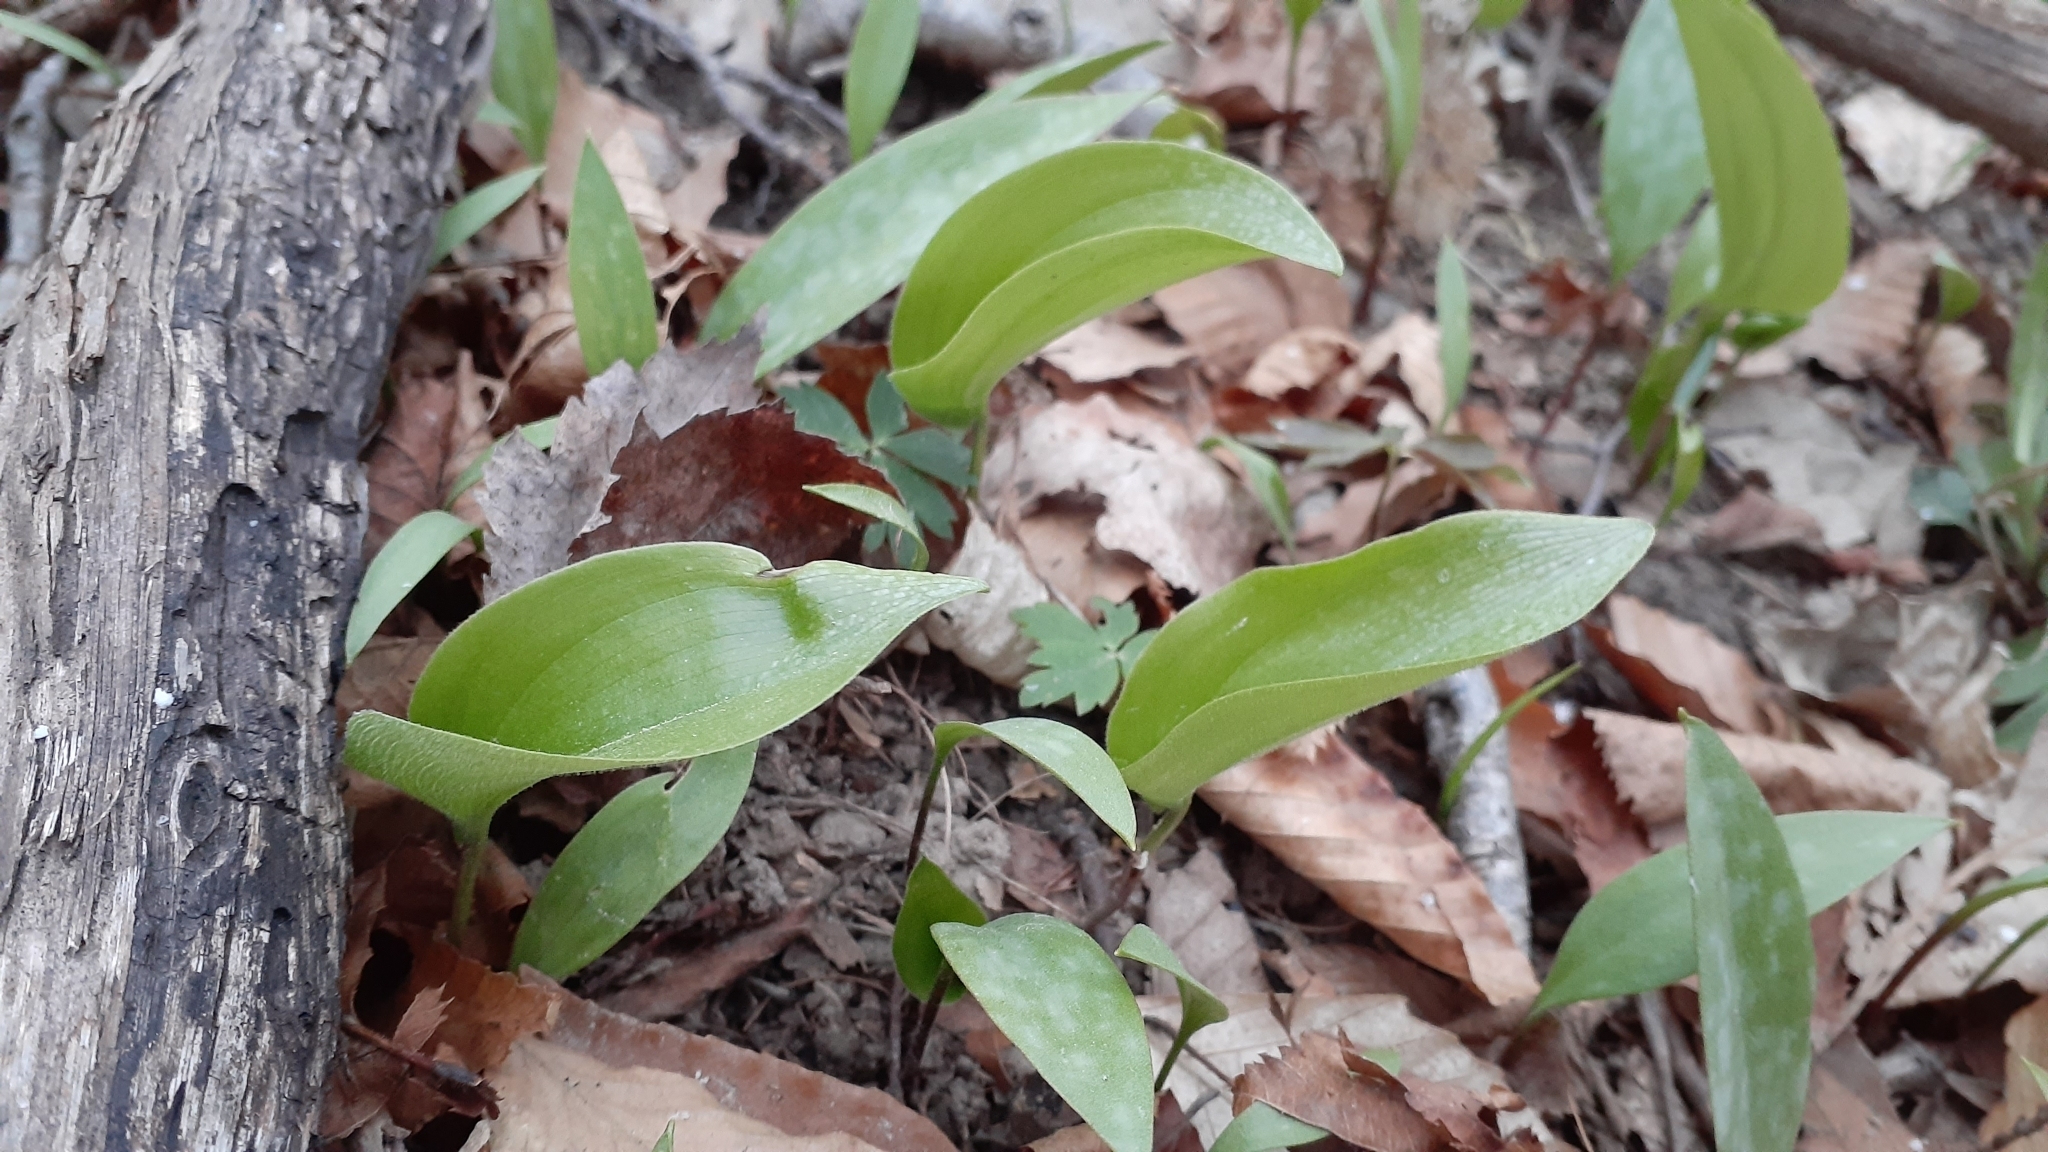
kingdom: Plantae
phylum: Tracheophyta
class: Liliopsida
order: Asparagales
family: Asparagaceae
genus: Maianthemum
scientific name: Maianthemum canadense
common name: False lily-of-the-valley
